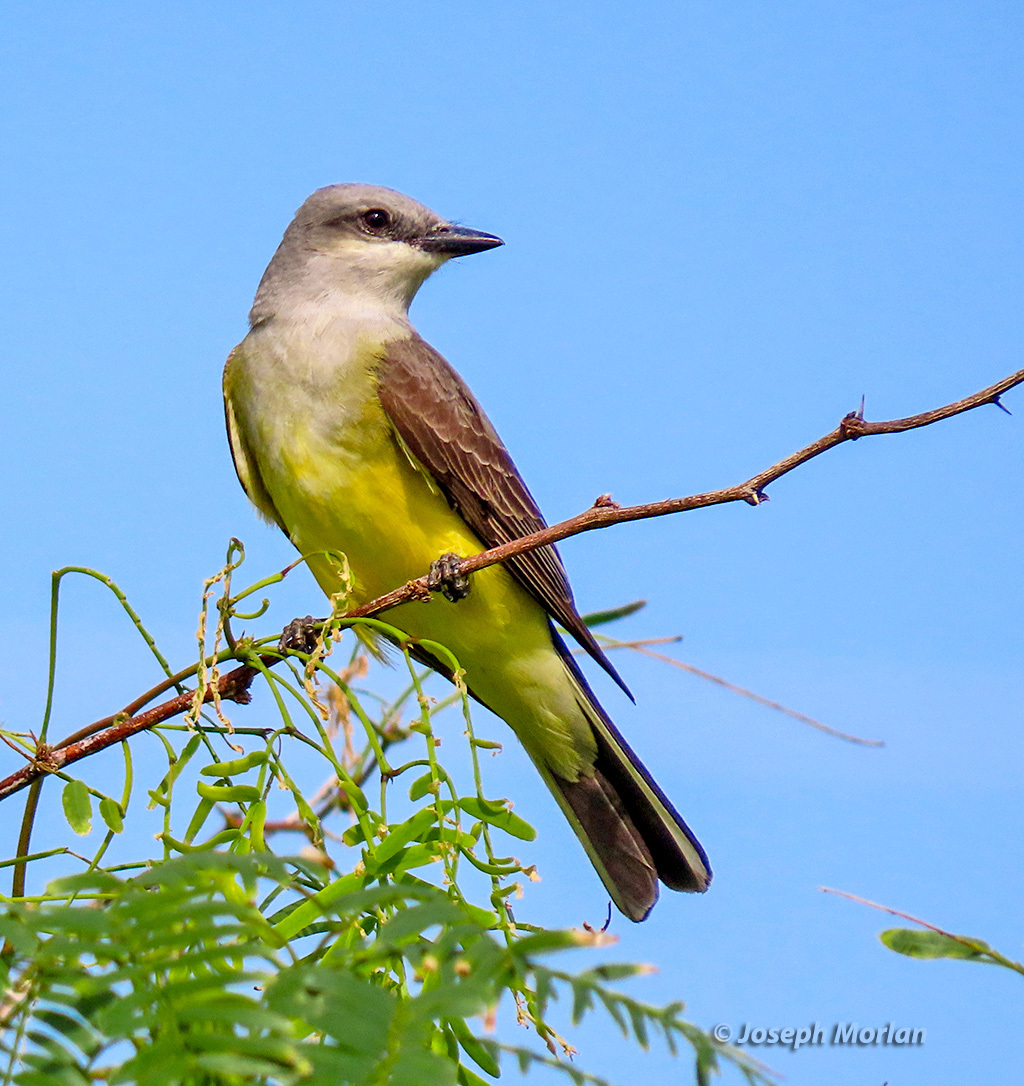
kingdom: Animalia
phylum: Chordata
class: Aves
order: Passeriformes
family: Tyrannidae
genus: Tyrannus
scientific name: Tyrannus verticalis
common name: Western kingbird
